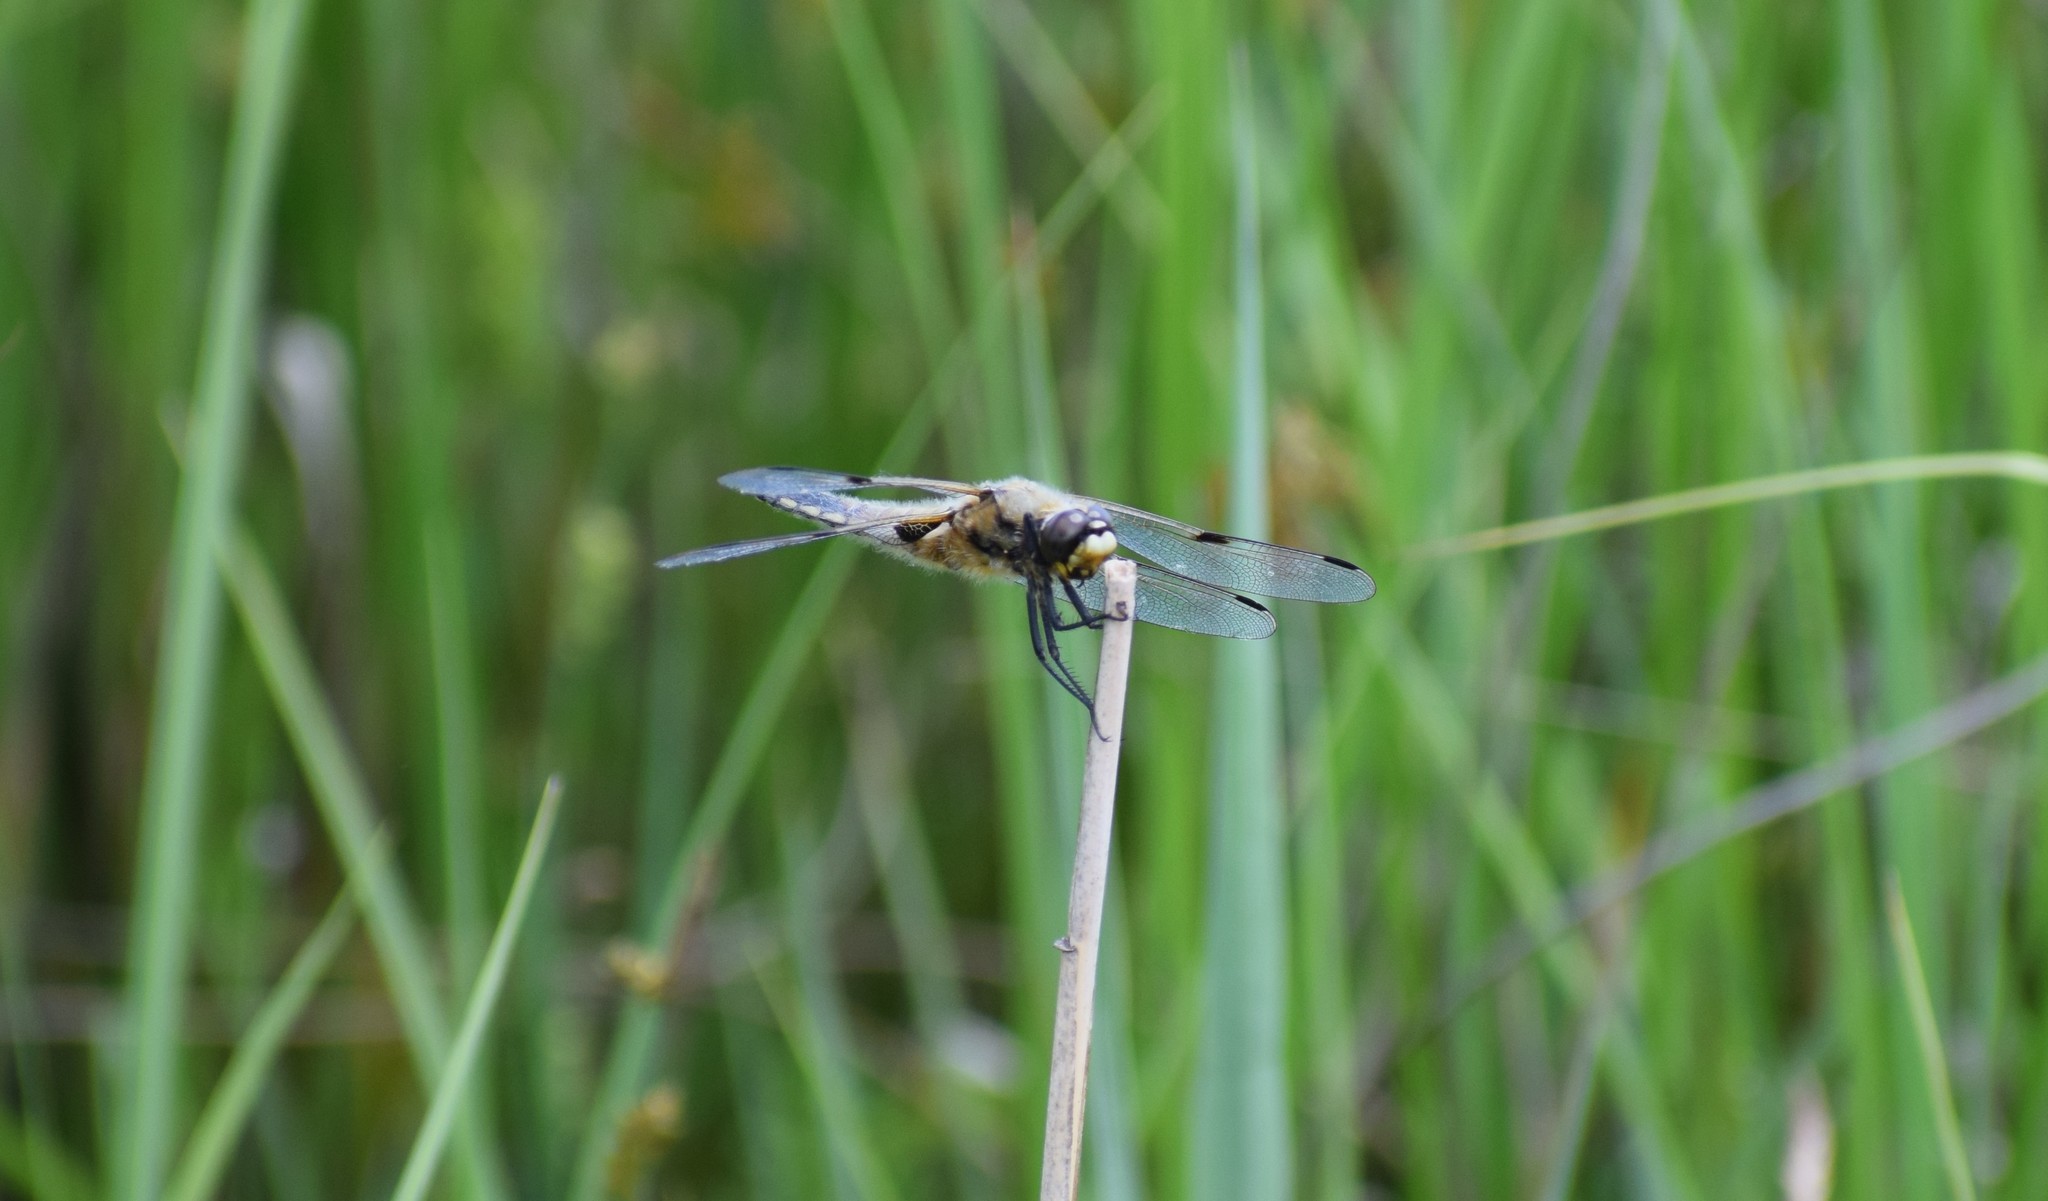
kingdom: Animalia
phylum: Arthropoda
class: Insecta
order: Odonata
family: Libellulidae
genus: Libellula
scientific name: Libellula quadrimaculata
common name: Four-spotted chaser
